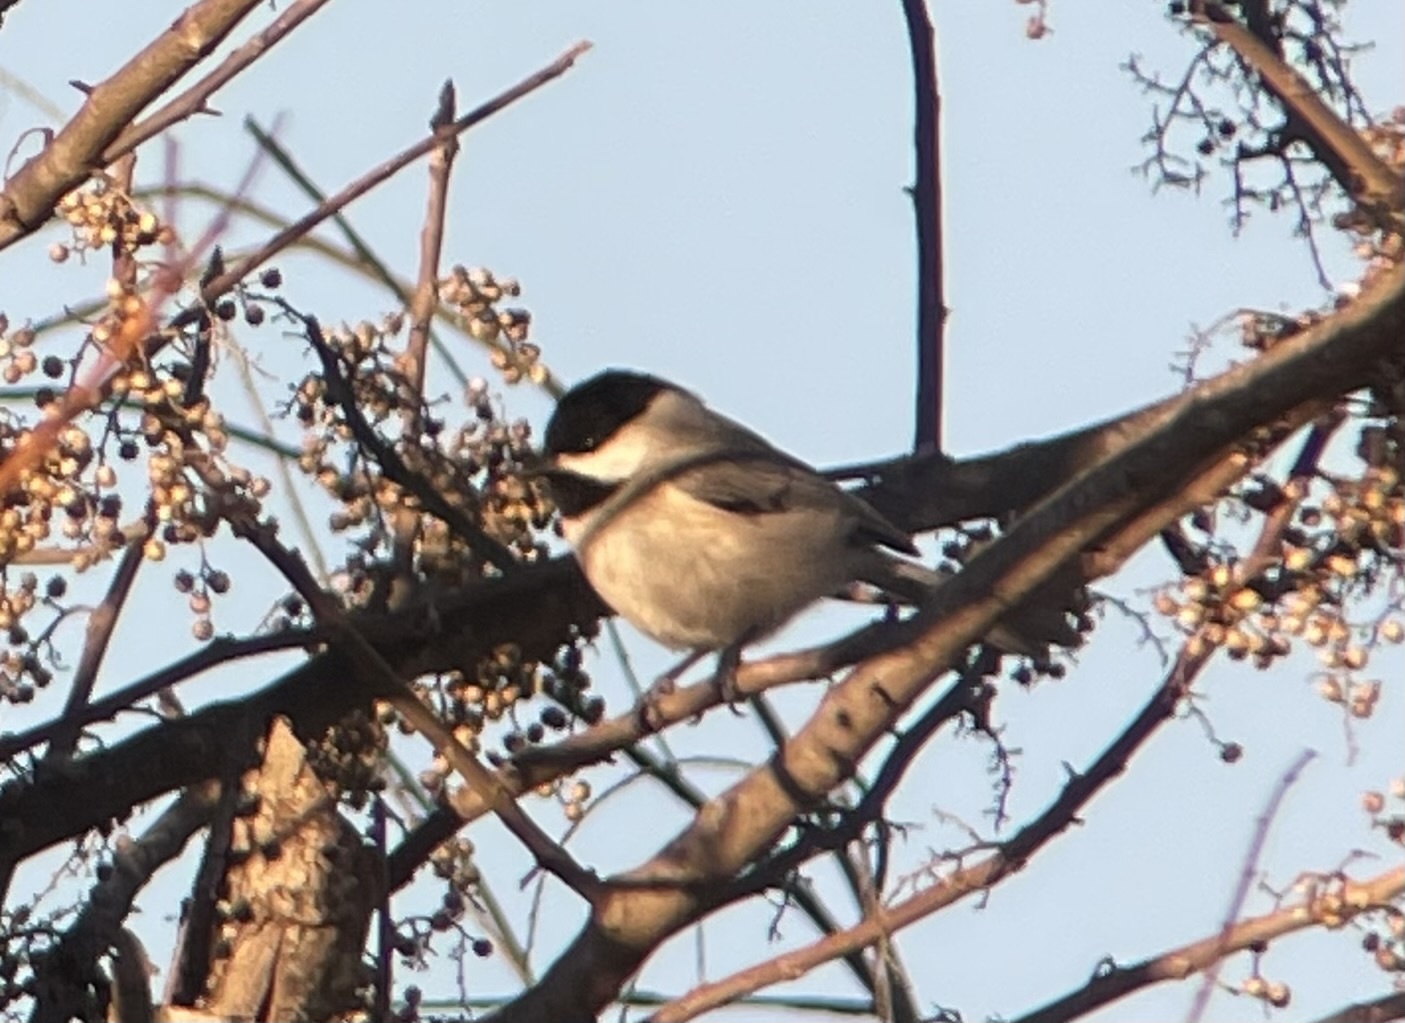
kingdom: Animalia
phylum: Chordata
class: Aves
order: Passeriformes
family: Paridae
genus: Poecile
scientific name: Poecile carolinensis
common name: Carolina chickadee
